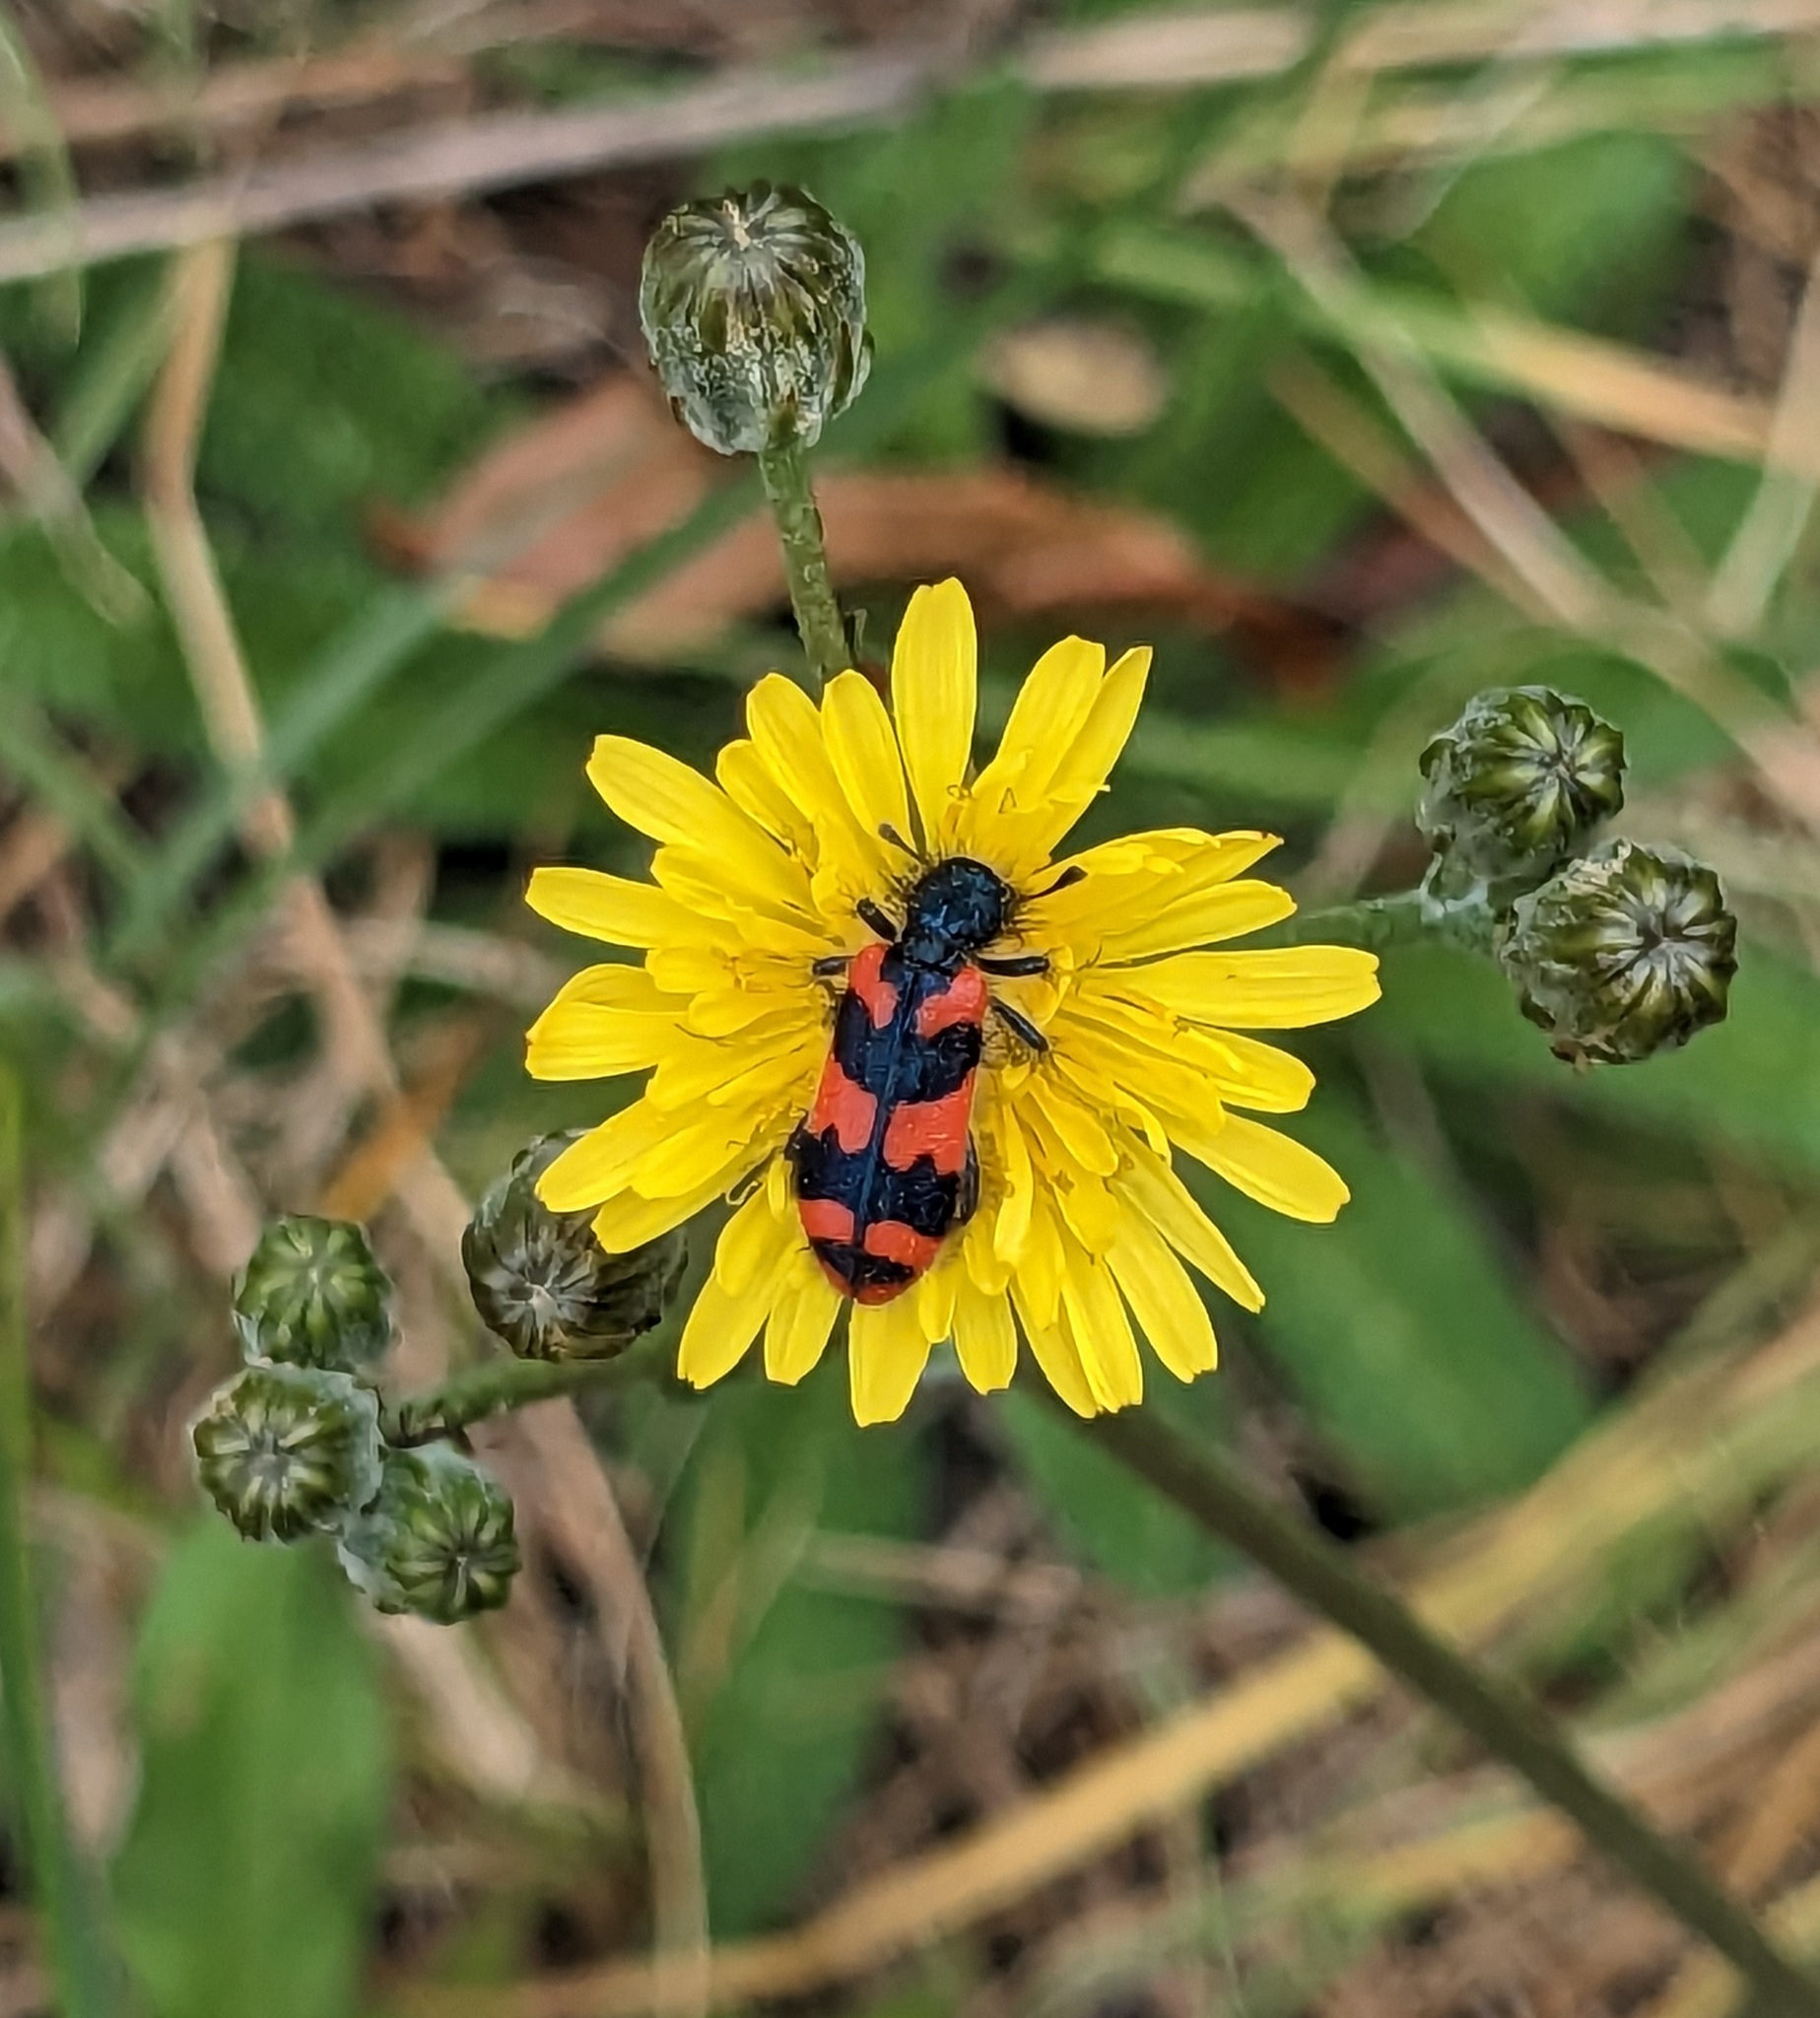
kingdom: Animalia
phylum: Arthropoda
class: Insecta
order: Coleoptera
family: Cleridae
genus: Trichodes
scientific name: Trichodes alvearius
